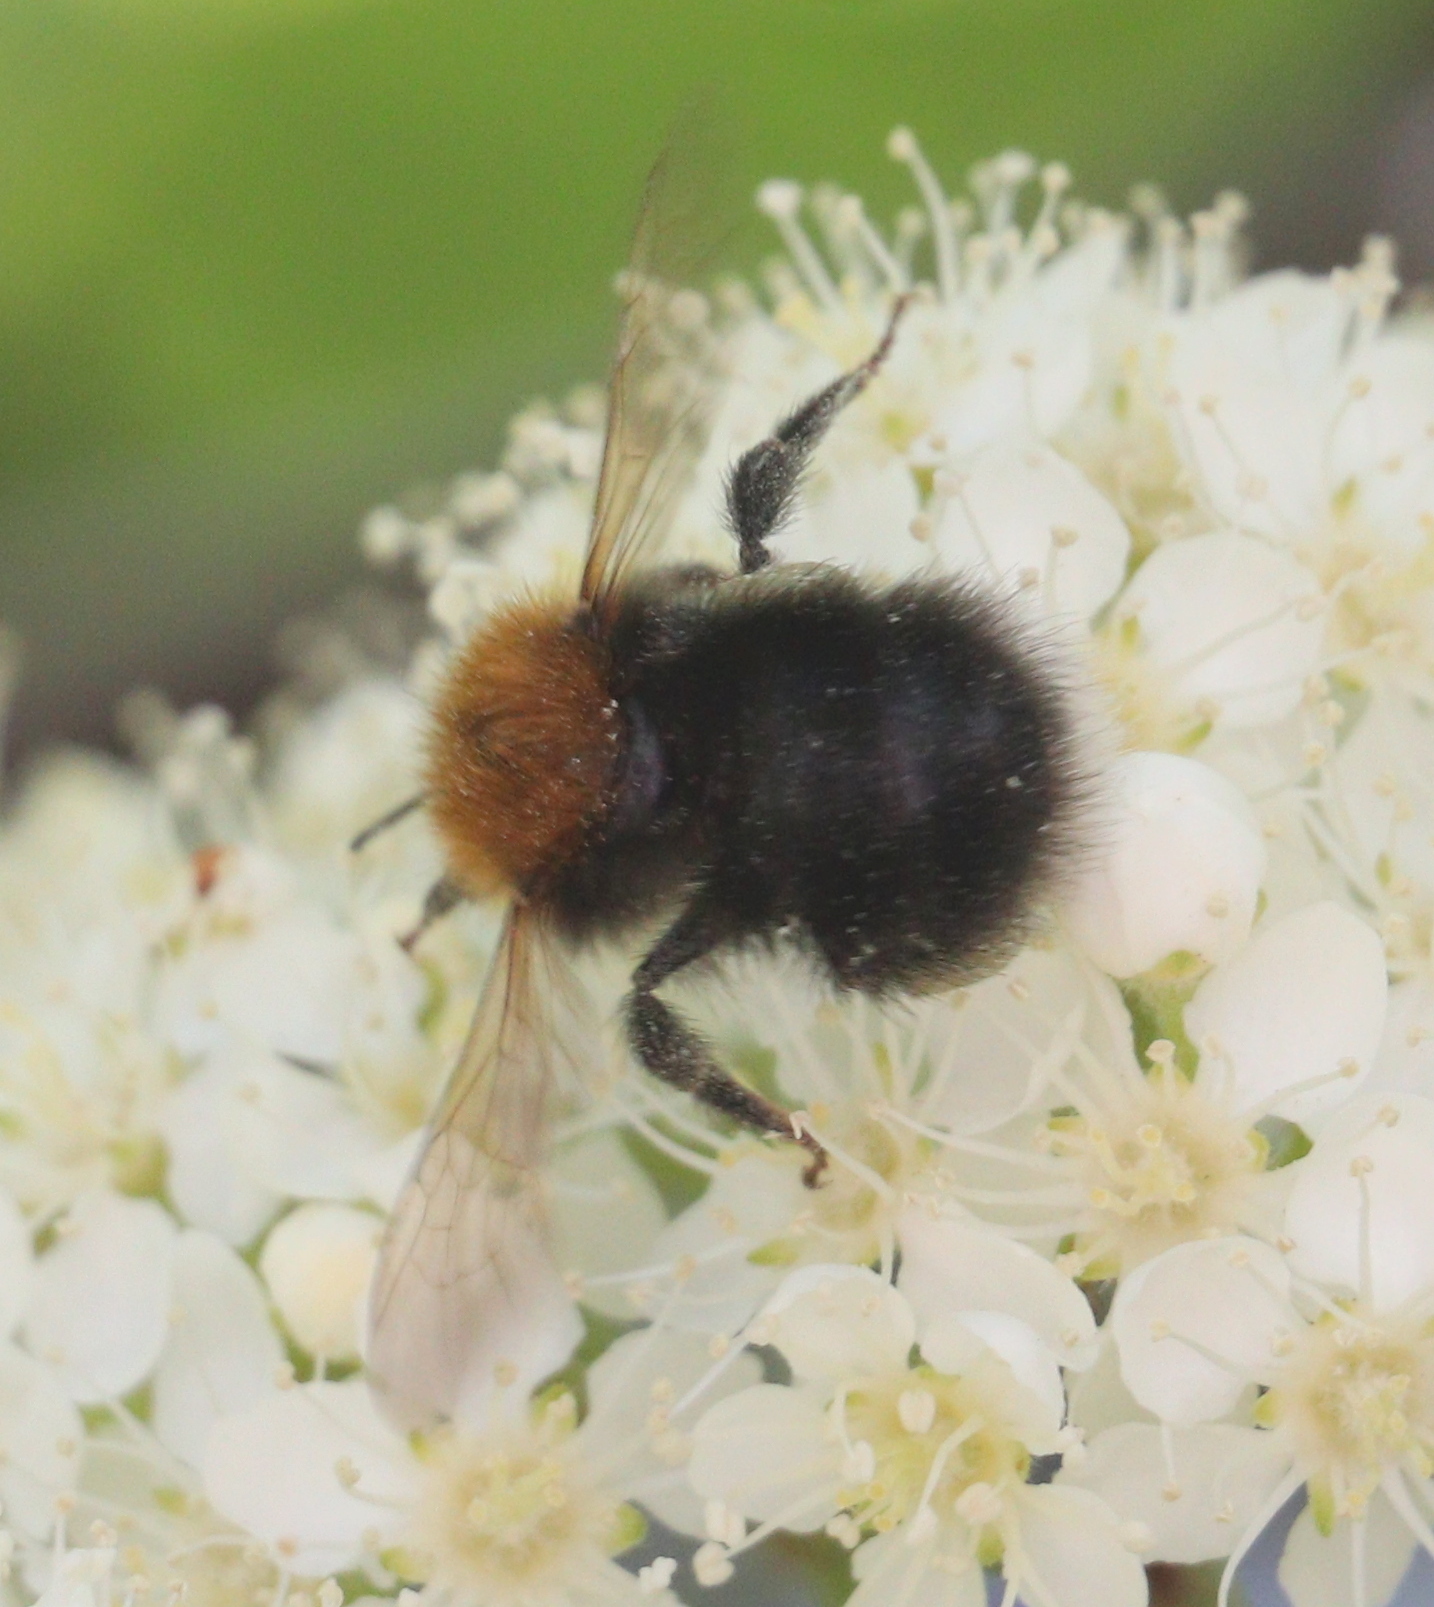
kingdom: Animalia
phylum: Arthropoda
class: Insecta
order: Hymenoptera
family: Apidae
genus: Bombus
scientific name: Bombus hypnorum
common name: New garden bumblebee
